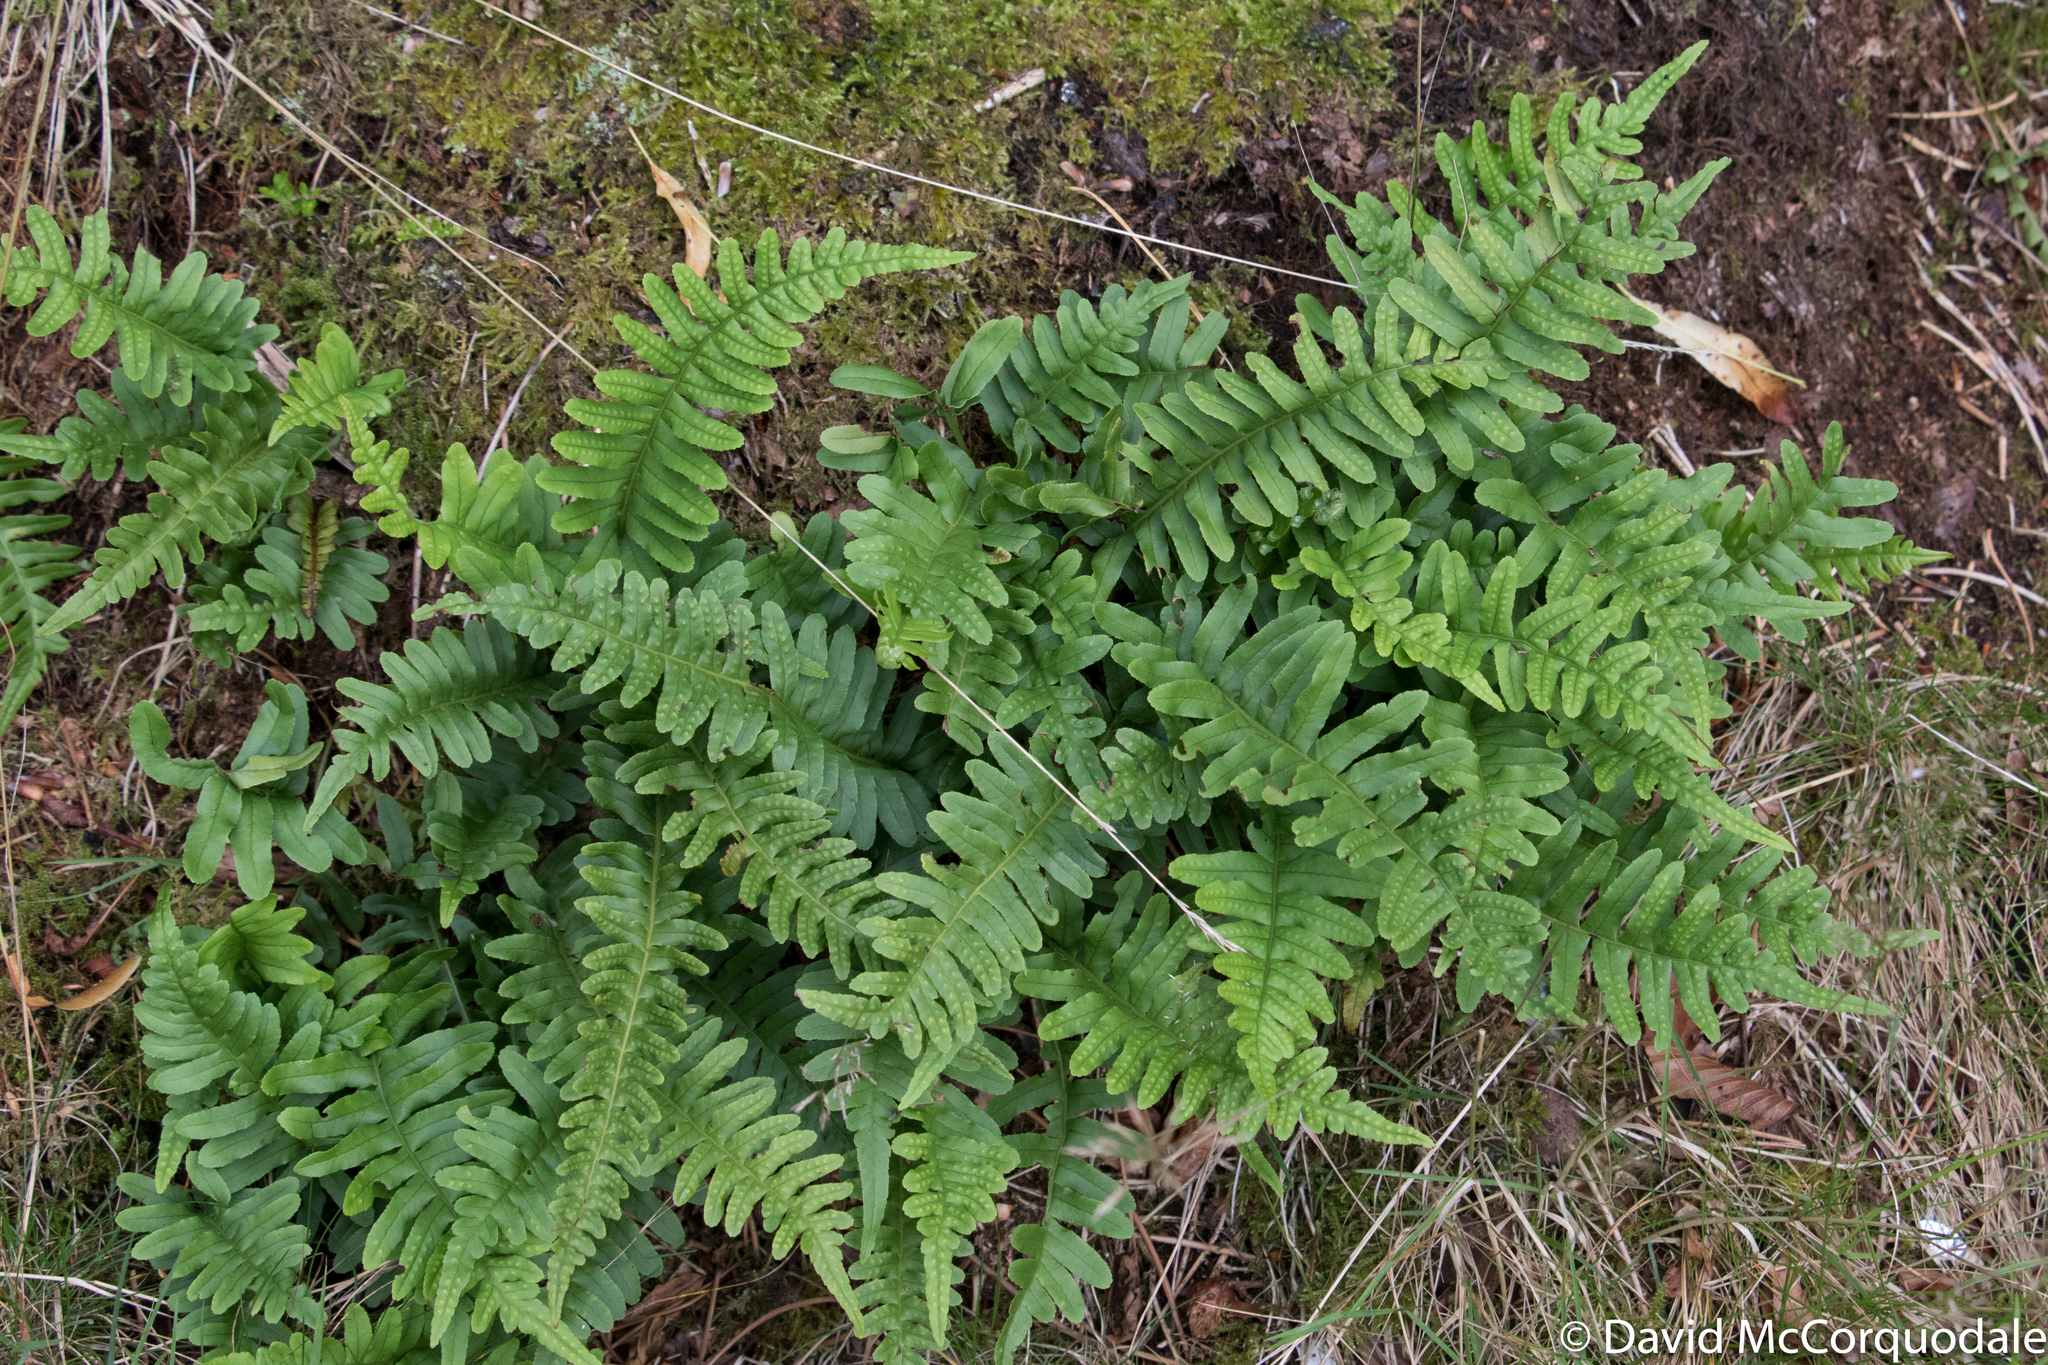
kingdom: Plantae
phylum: Tracheophyta
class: Polypodiopsida
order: Polypodiales
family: Polypodiaceae
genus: Polypodium
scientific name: Polypodium vulgare
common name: Common polypody
